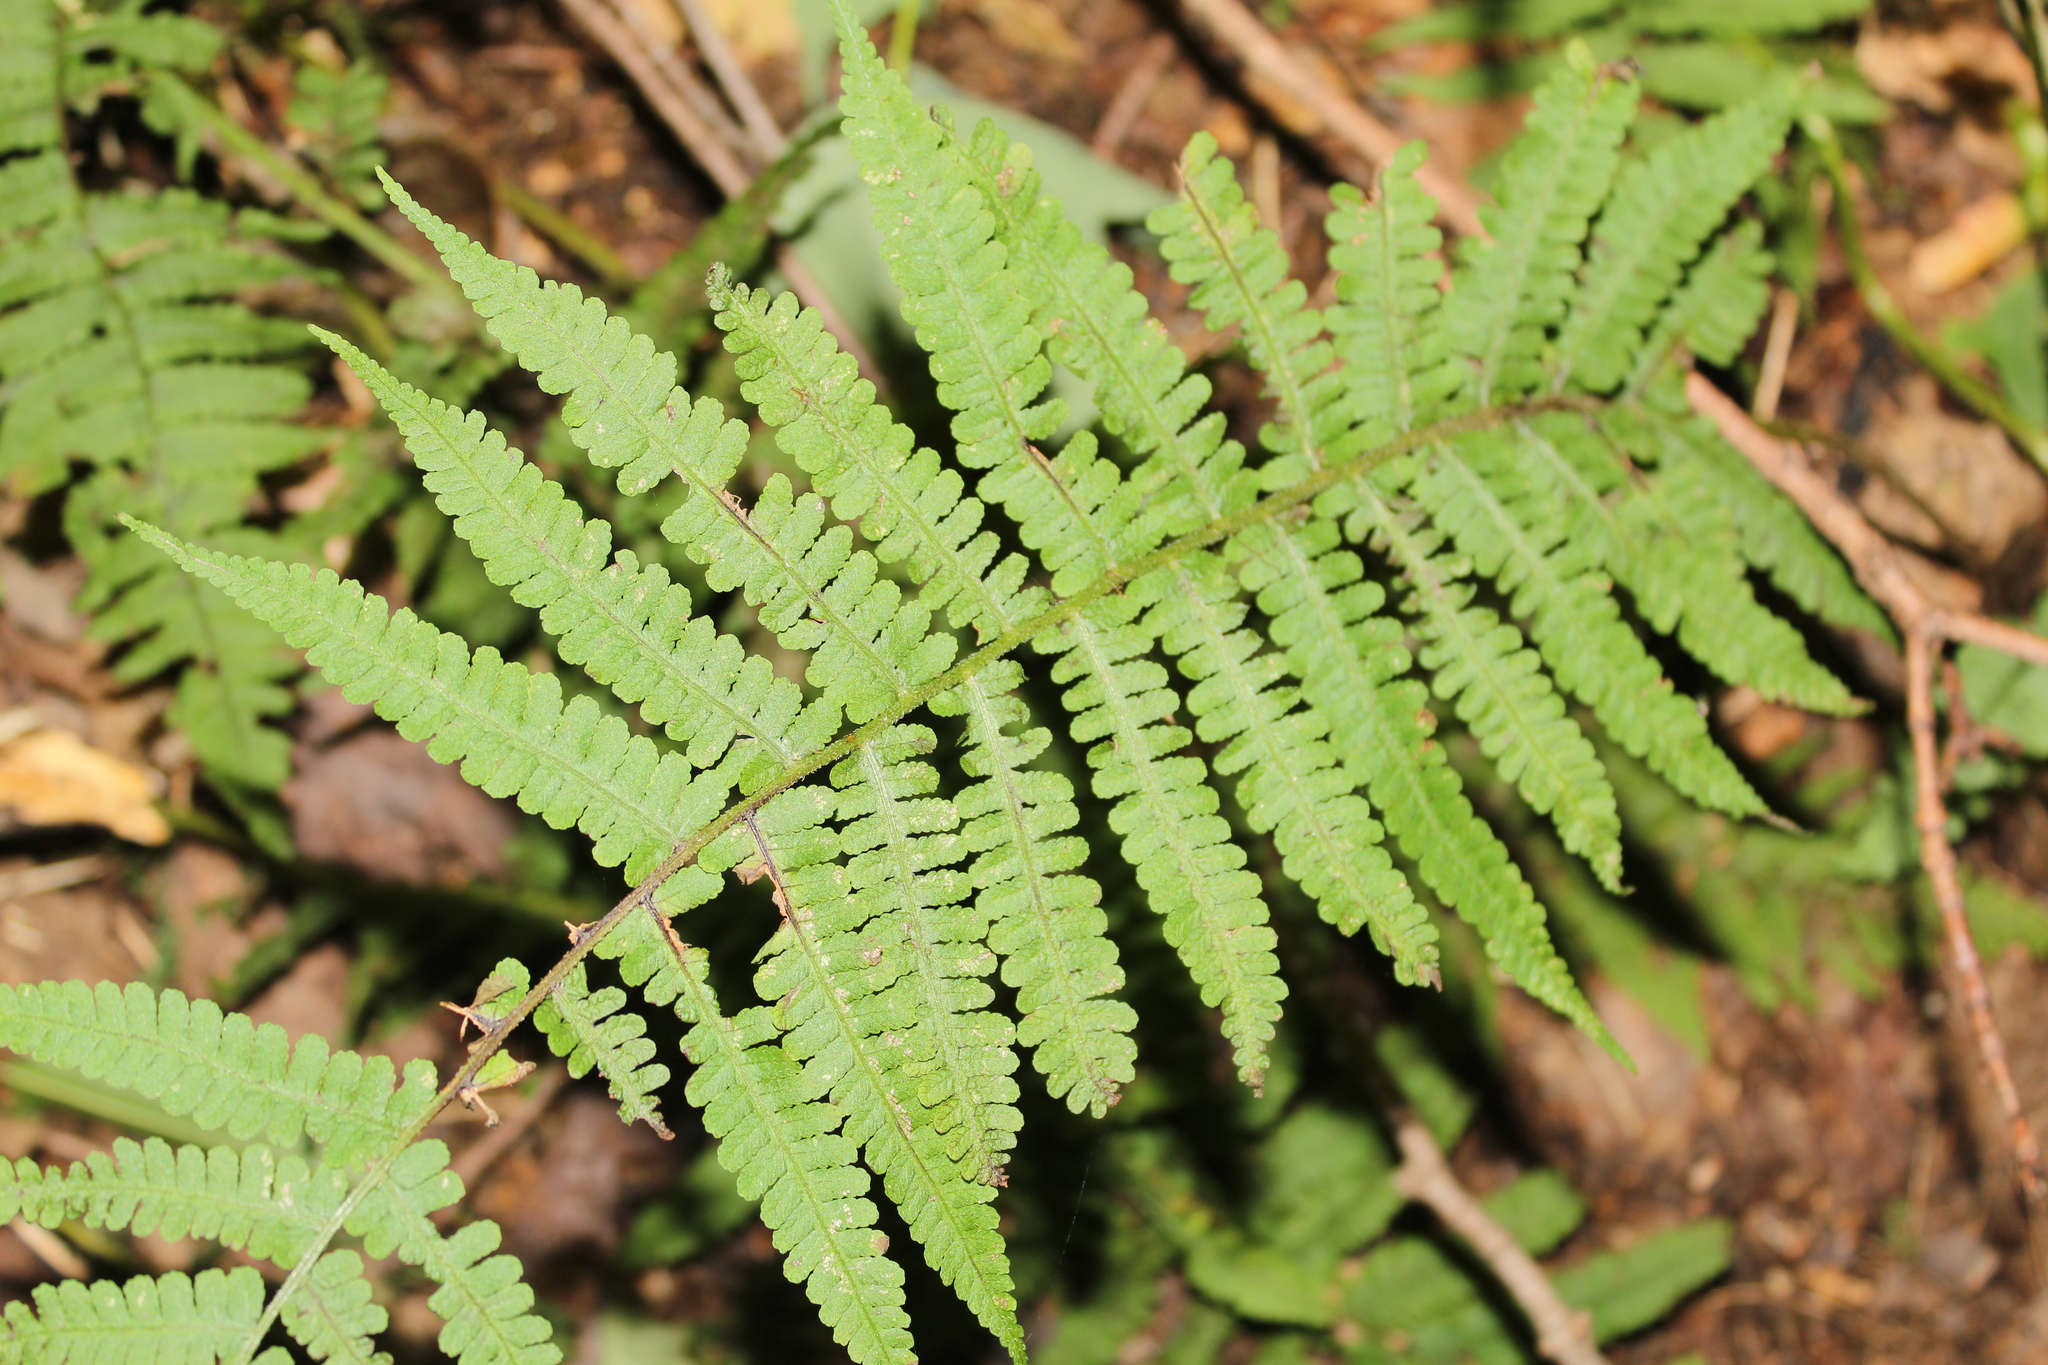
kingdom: Plantae
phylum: Tracheophyta
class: Polypodiopsida
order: Polypodiales
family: Athyriaceae
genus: Deparia
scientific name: Deparia acrostichoides
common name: Silver false spleenwort
